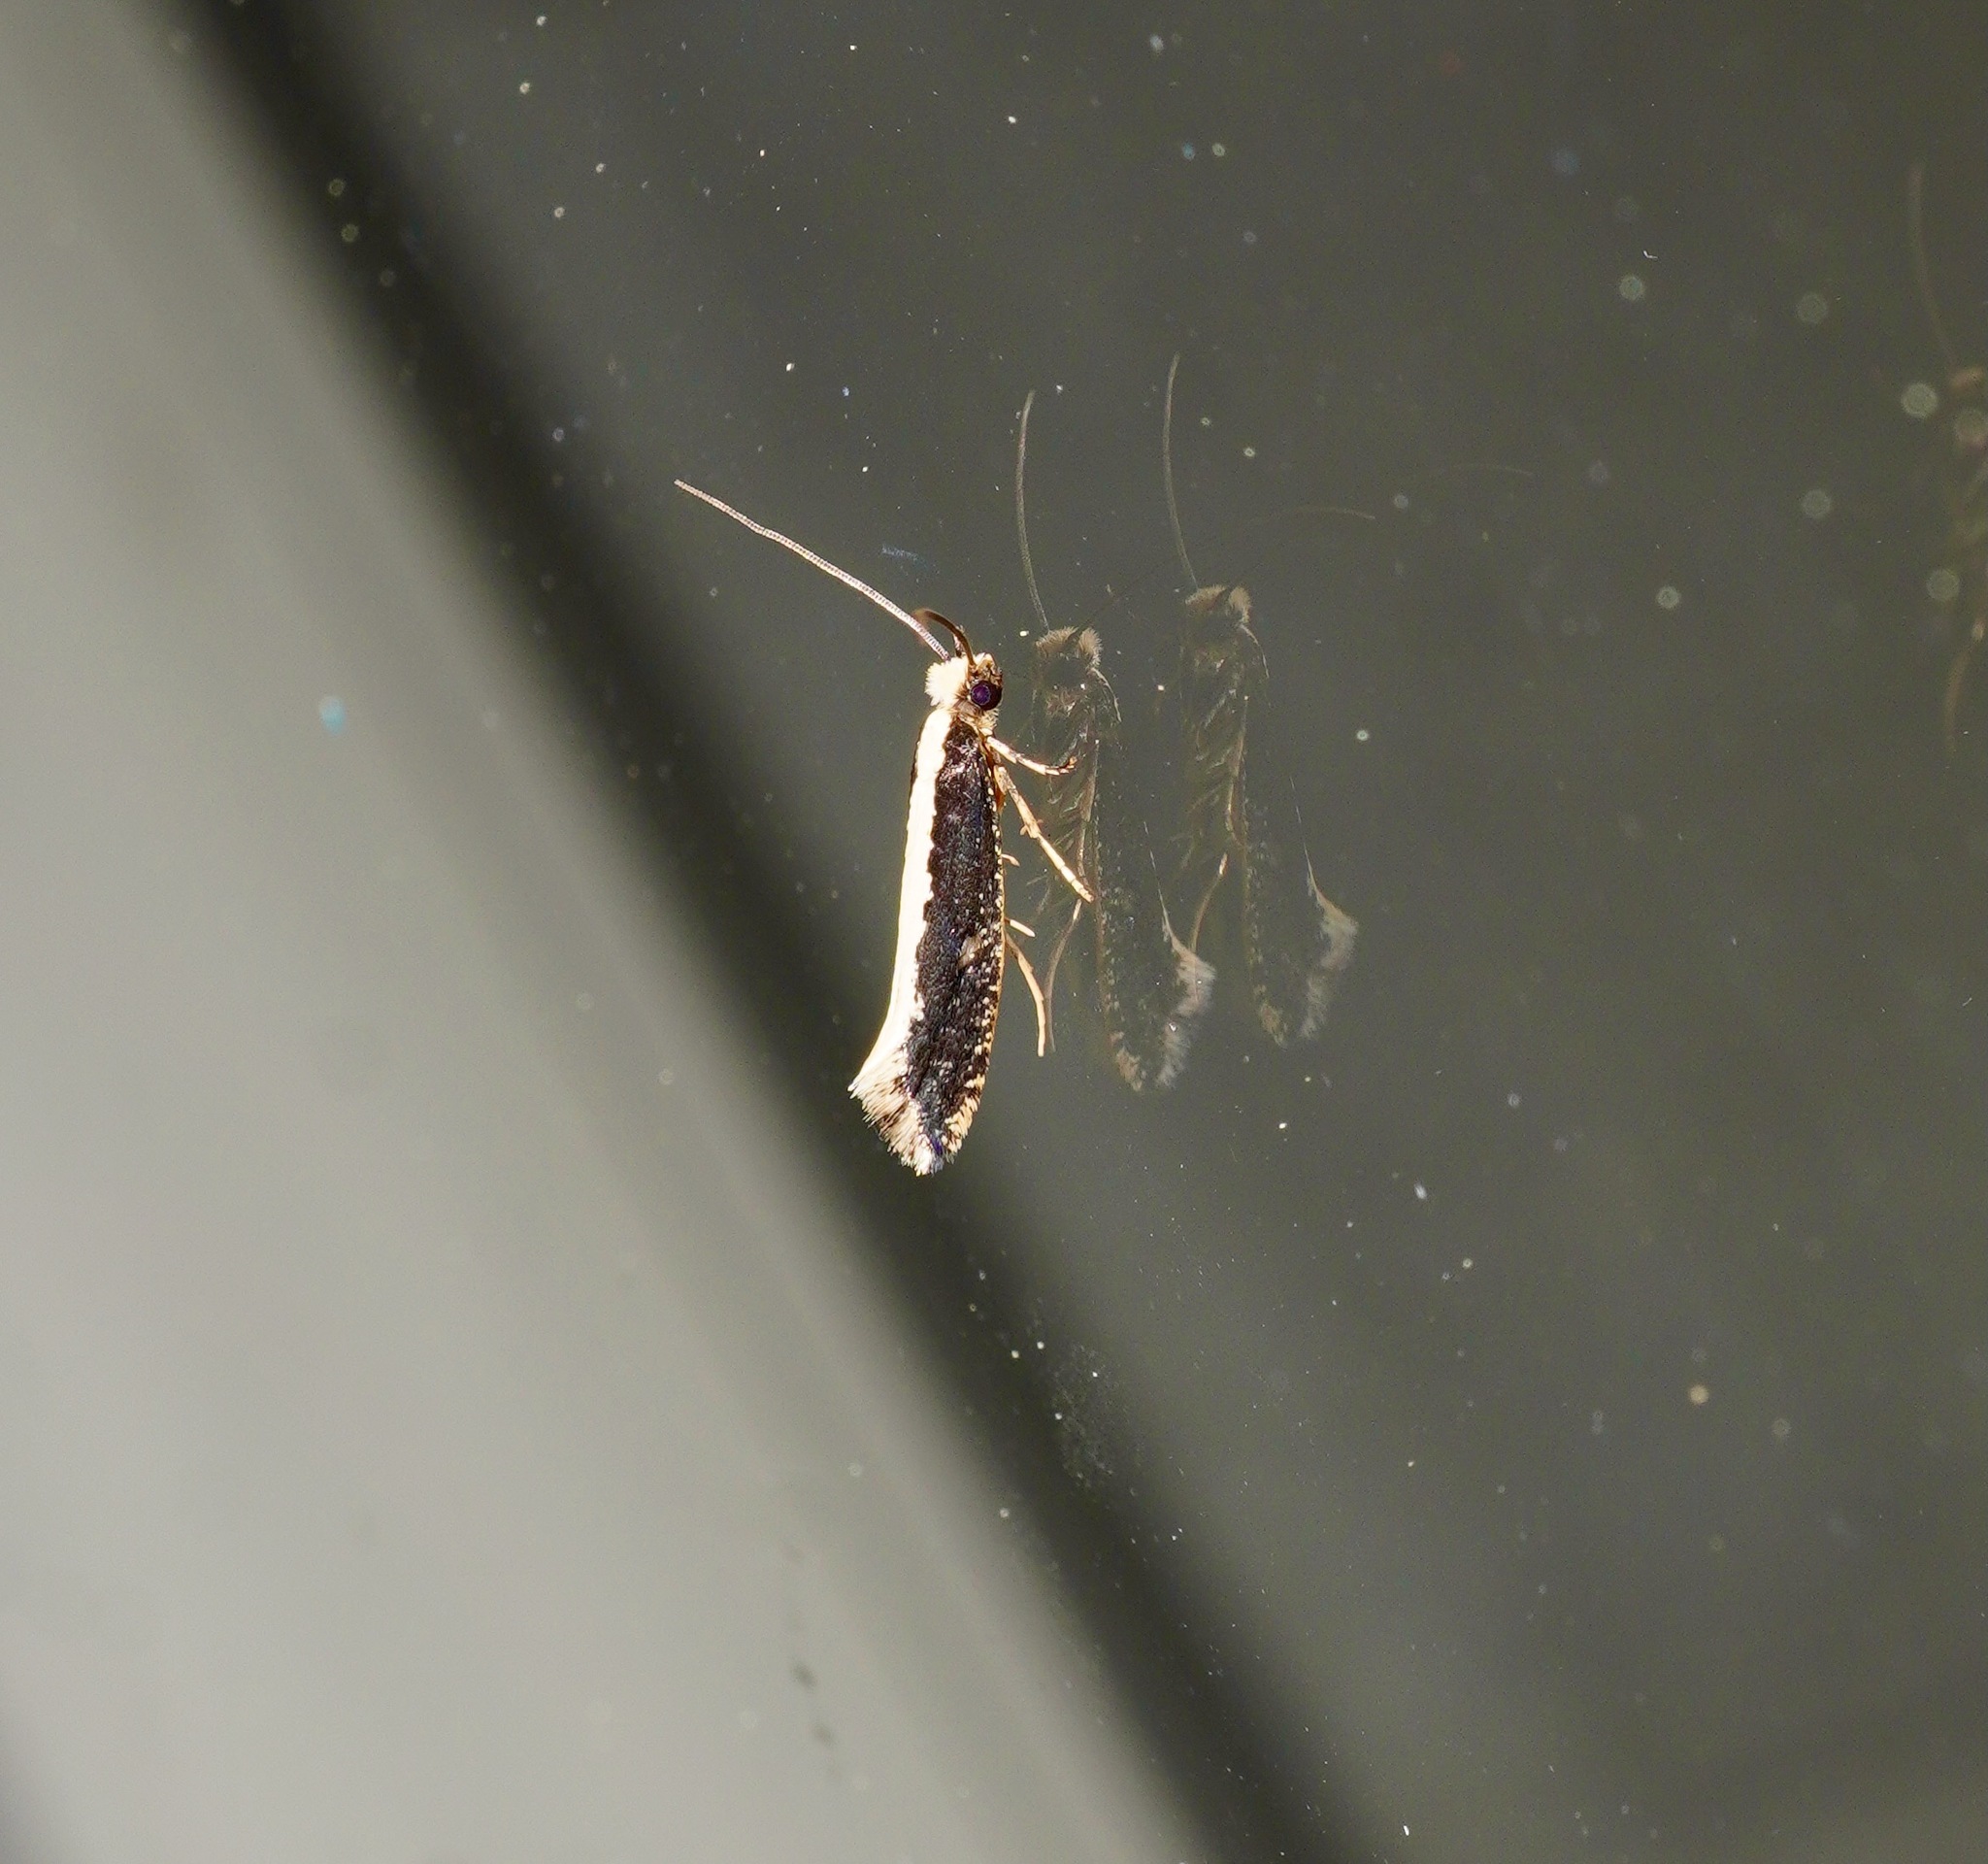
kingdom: Animalia
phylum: Arthropoda
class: Insecta
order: Lepidoptera
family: Tineidae
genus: Monopis
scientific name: Monopis ethelella
